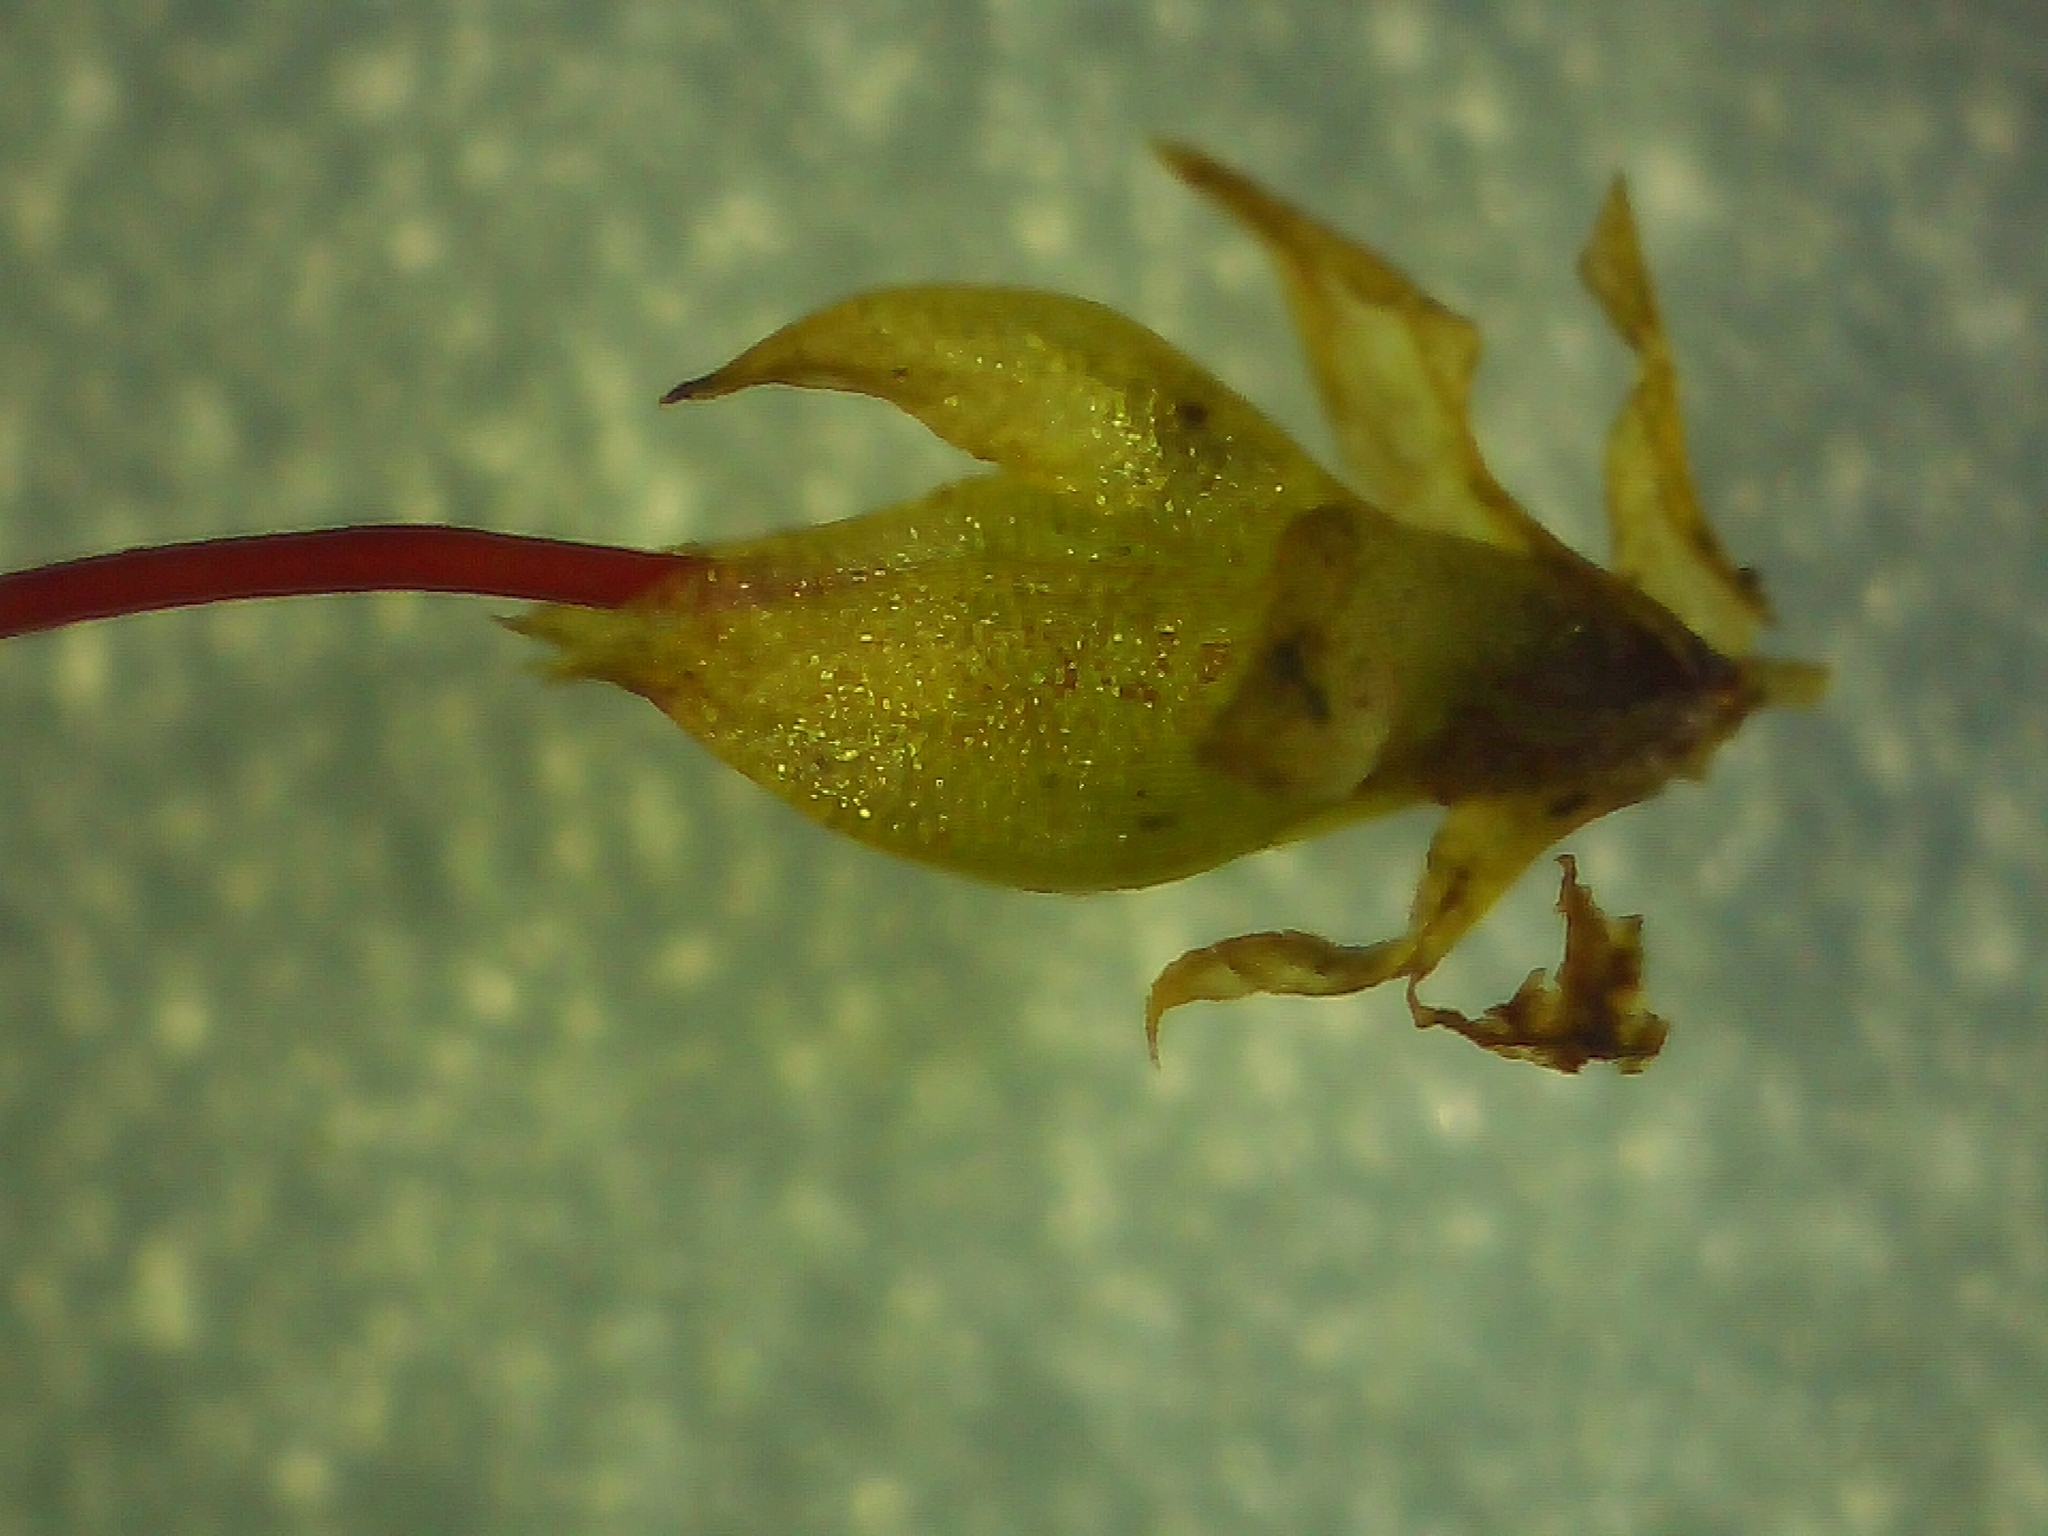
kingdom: Plantae
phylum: Bryophyta
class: Bryopsida
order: Funariales
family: Funariaceae
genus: Funaria
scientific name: Funaria hygrometrica
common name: Common cord moss
